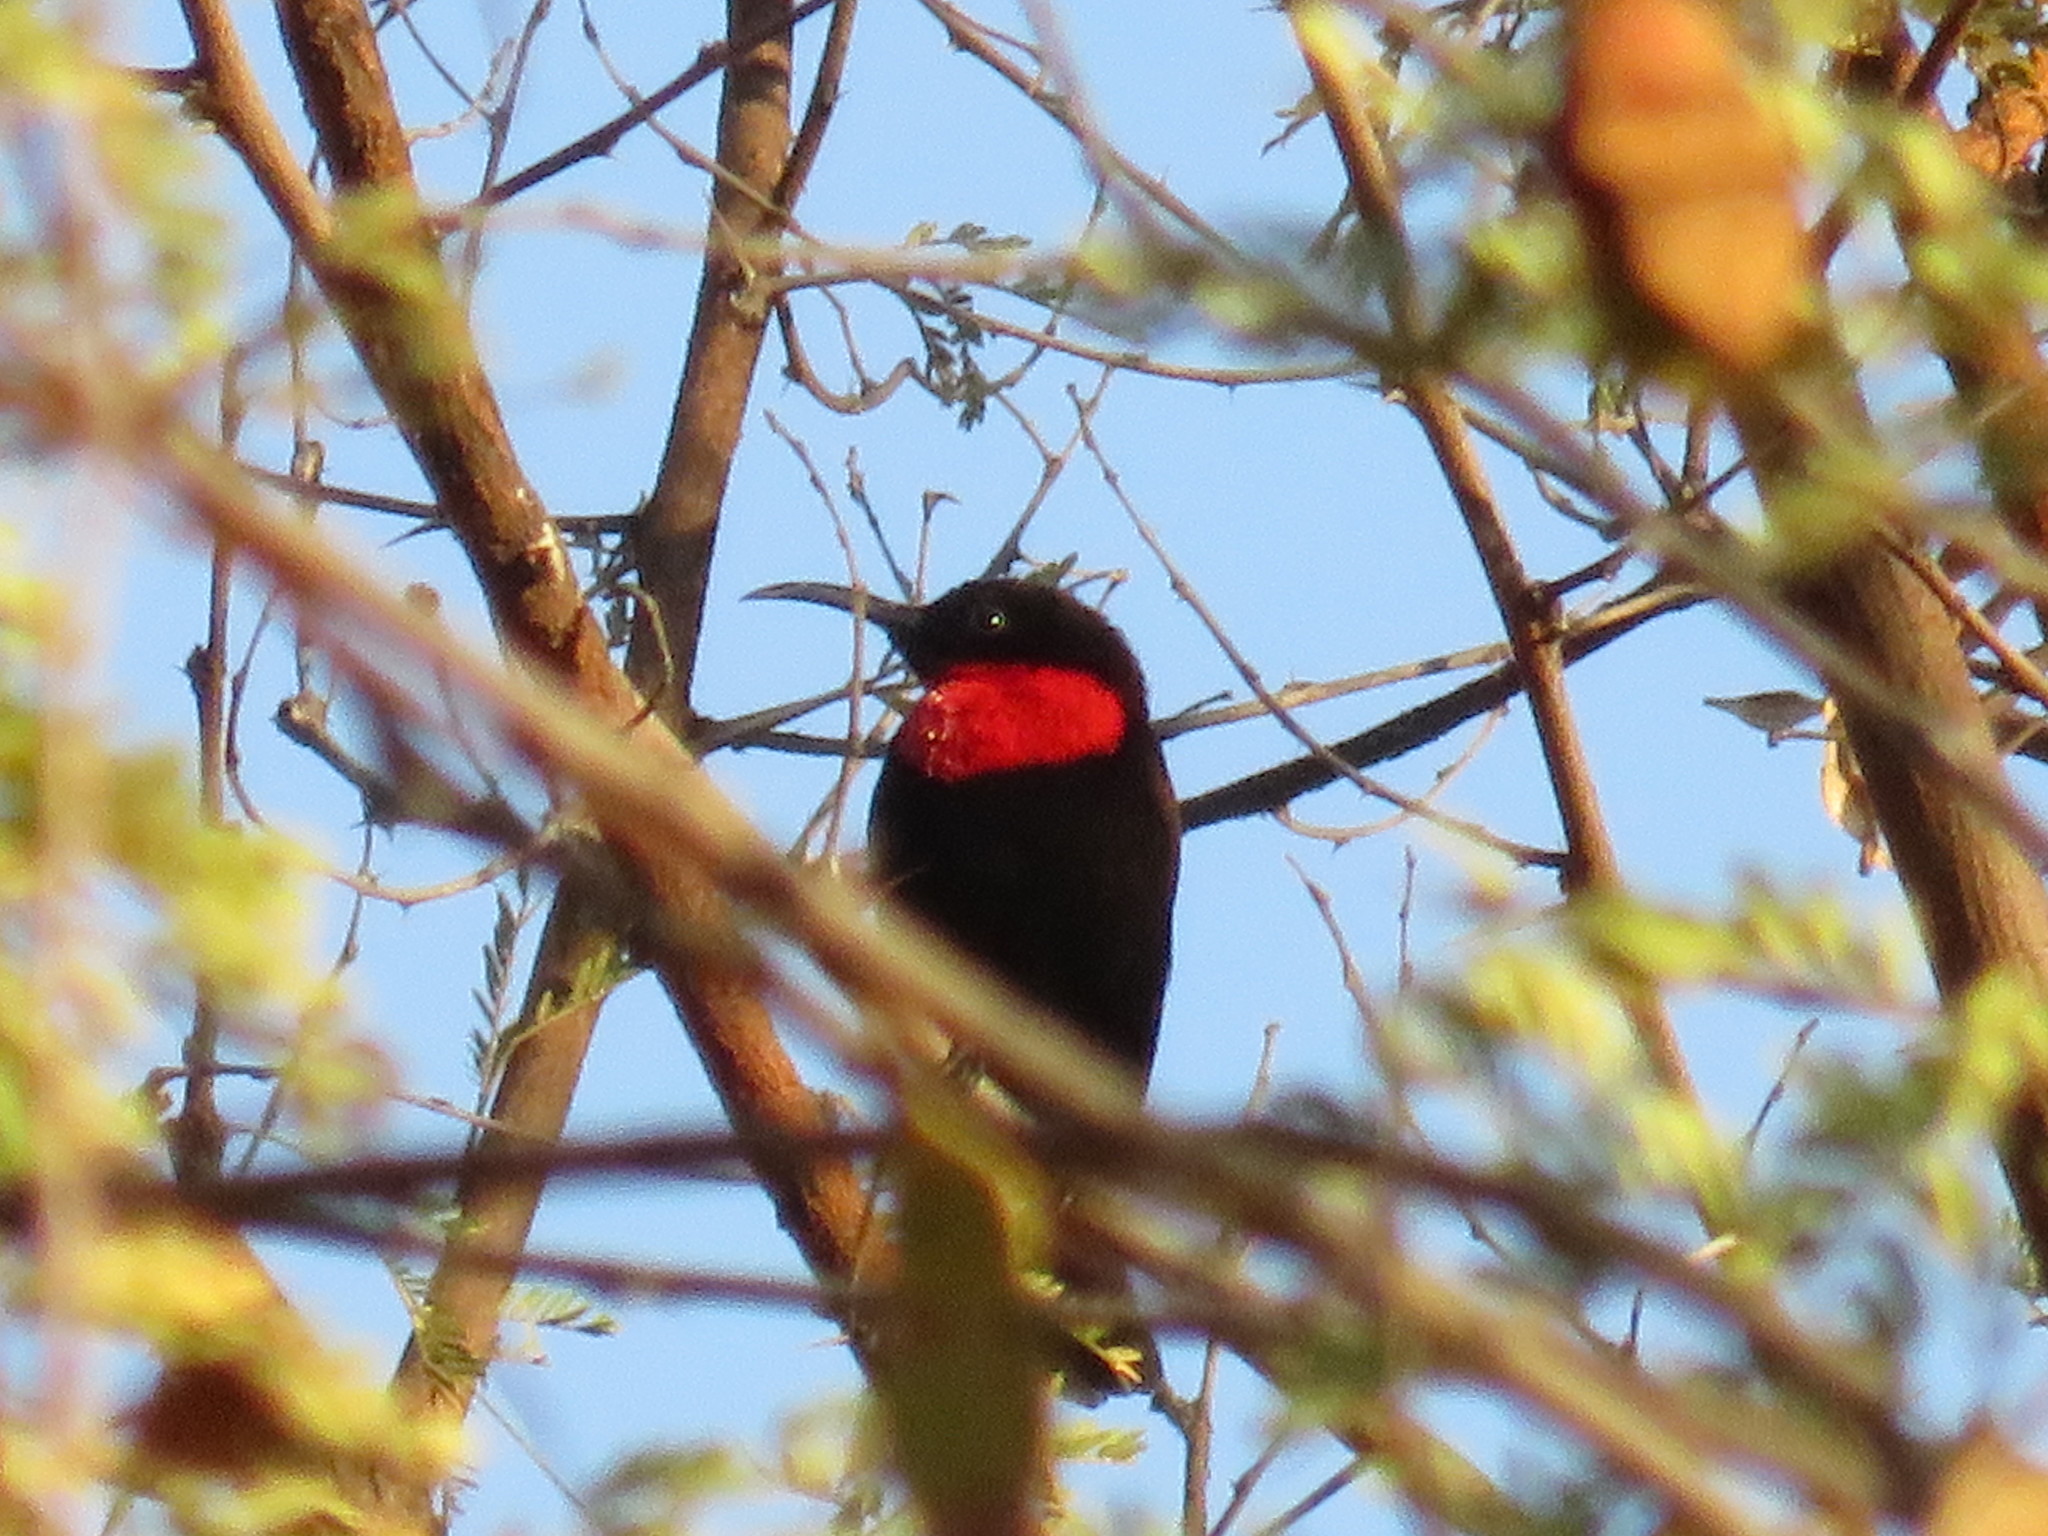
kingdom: Animalia
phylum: Chordata
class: Aves
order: Passeriformes
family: Nectariniidae
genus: Chalcomitra
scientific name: Chalcomitra senegalensis
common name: Scarlet-chested sunbird
